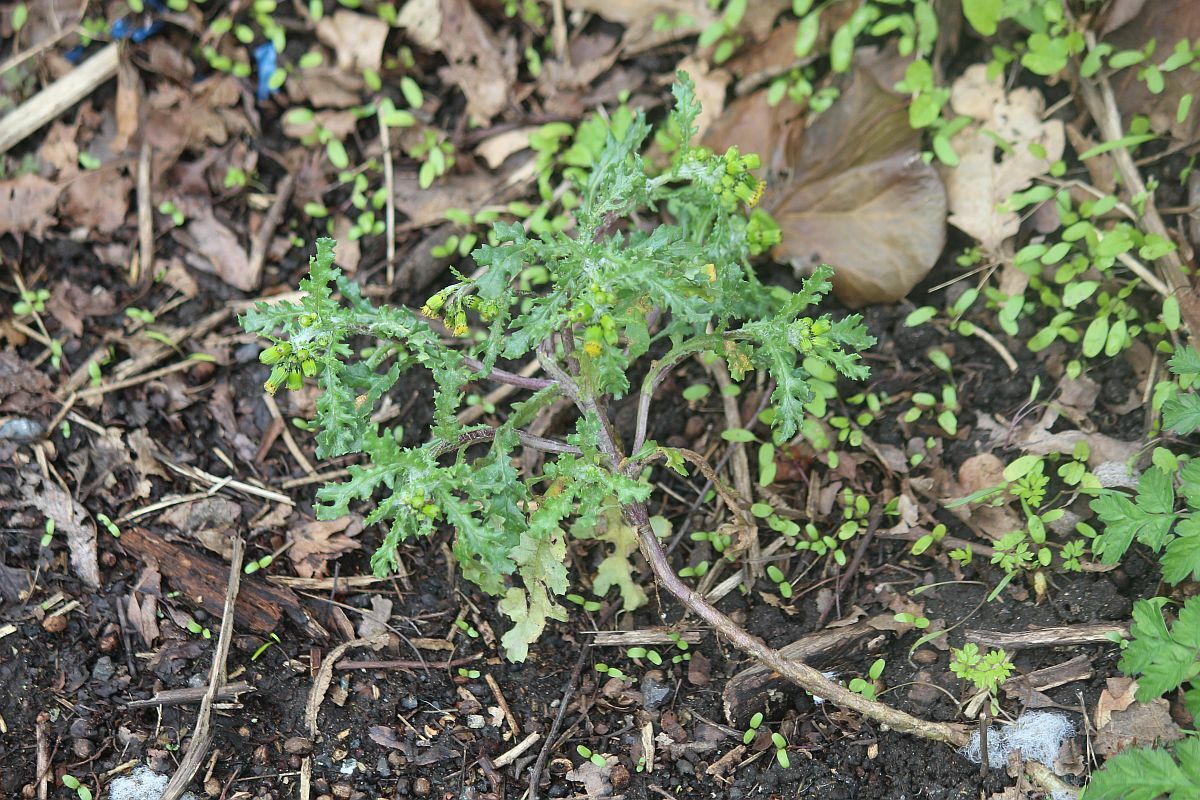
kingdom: Plantae
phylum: Tracheophyta
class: Magnoliopsida
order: Asterales
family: Asteraceae
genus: Senecio
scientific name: Senecio vulgaris
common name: Old-man-in-the-spring
